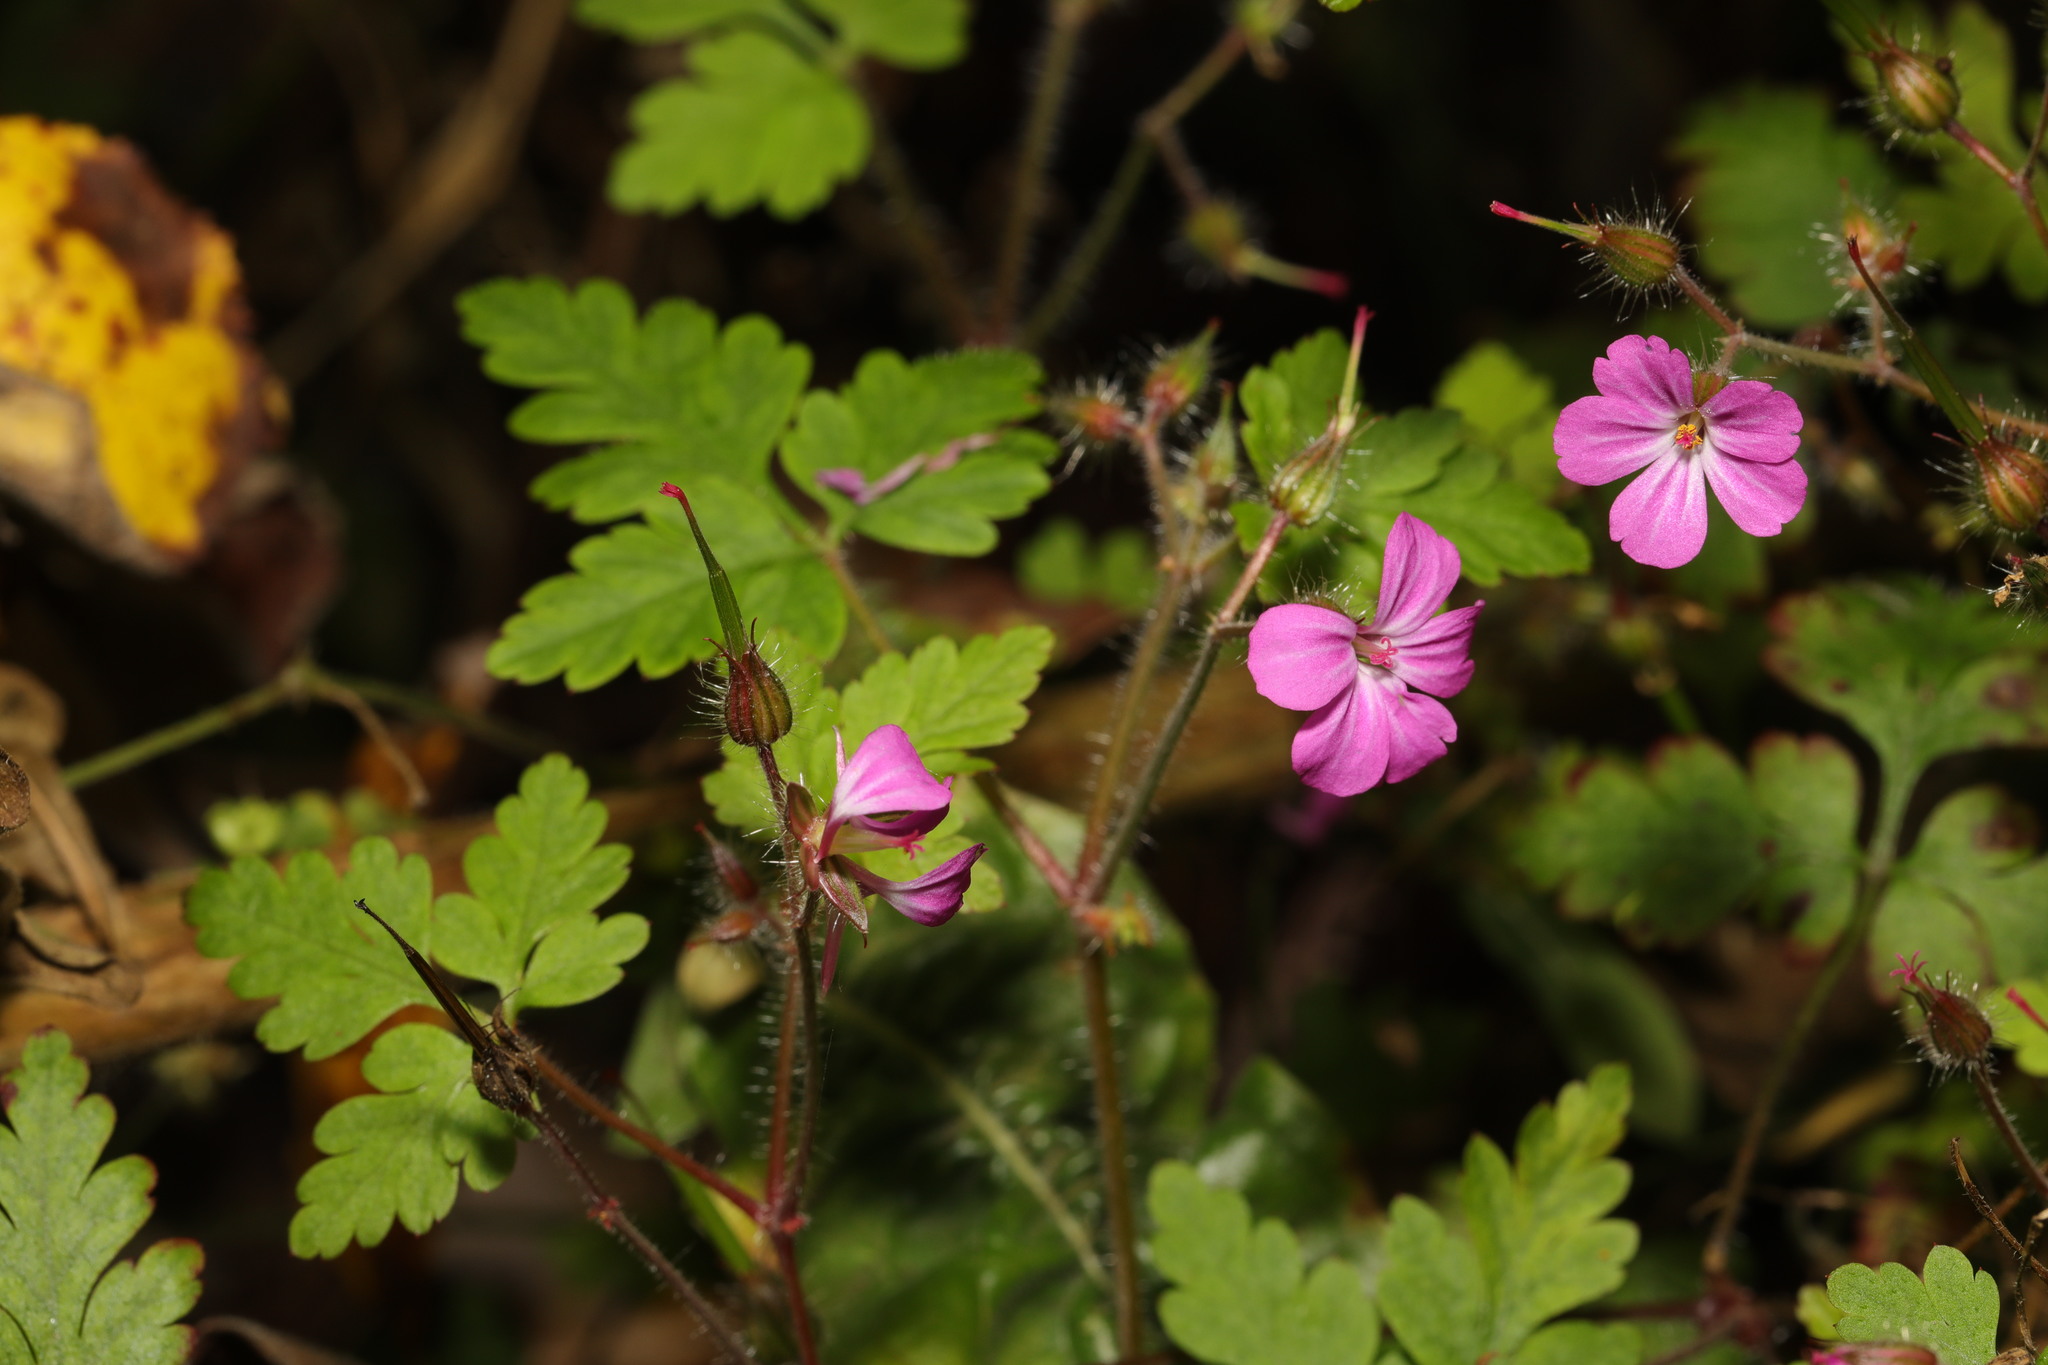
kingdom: Plantae
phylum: Tracheophyta
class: Magnoliopsida
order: Geraniales
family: Geraniaceae
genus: Geranium
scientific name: Geranium robertianum
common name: Herb-robert
